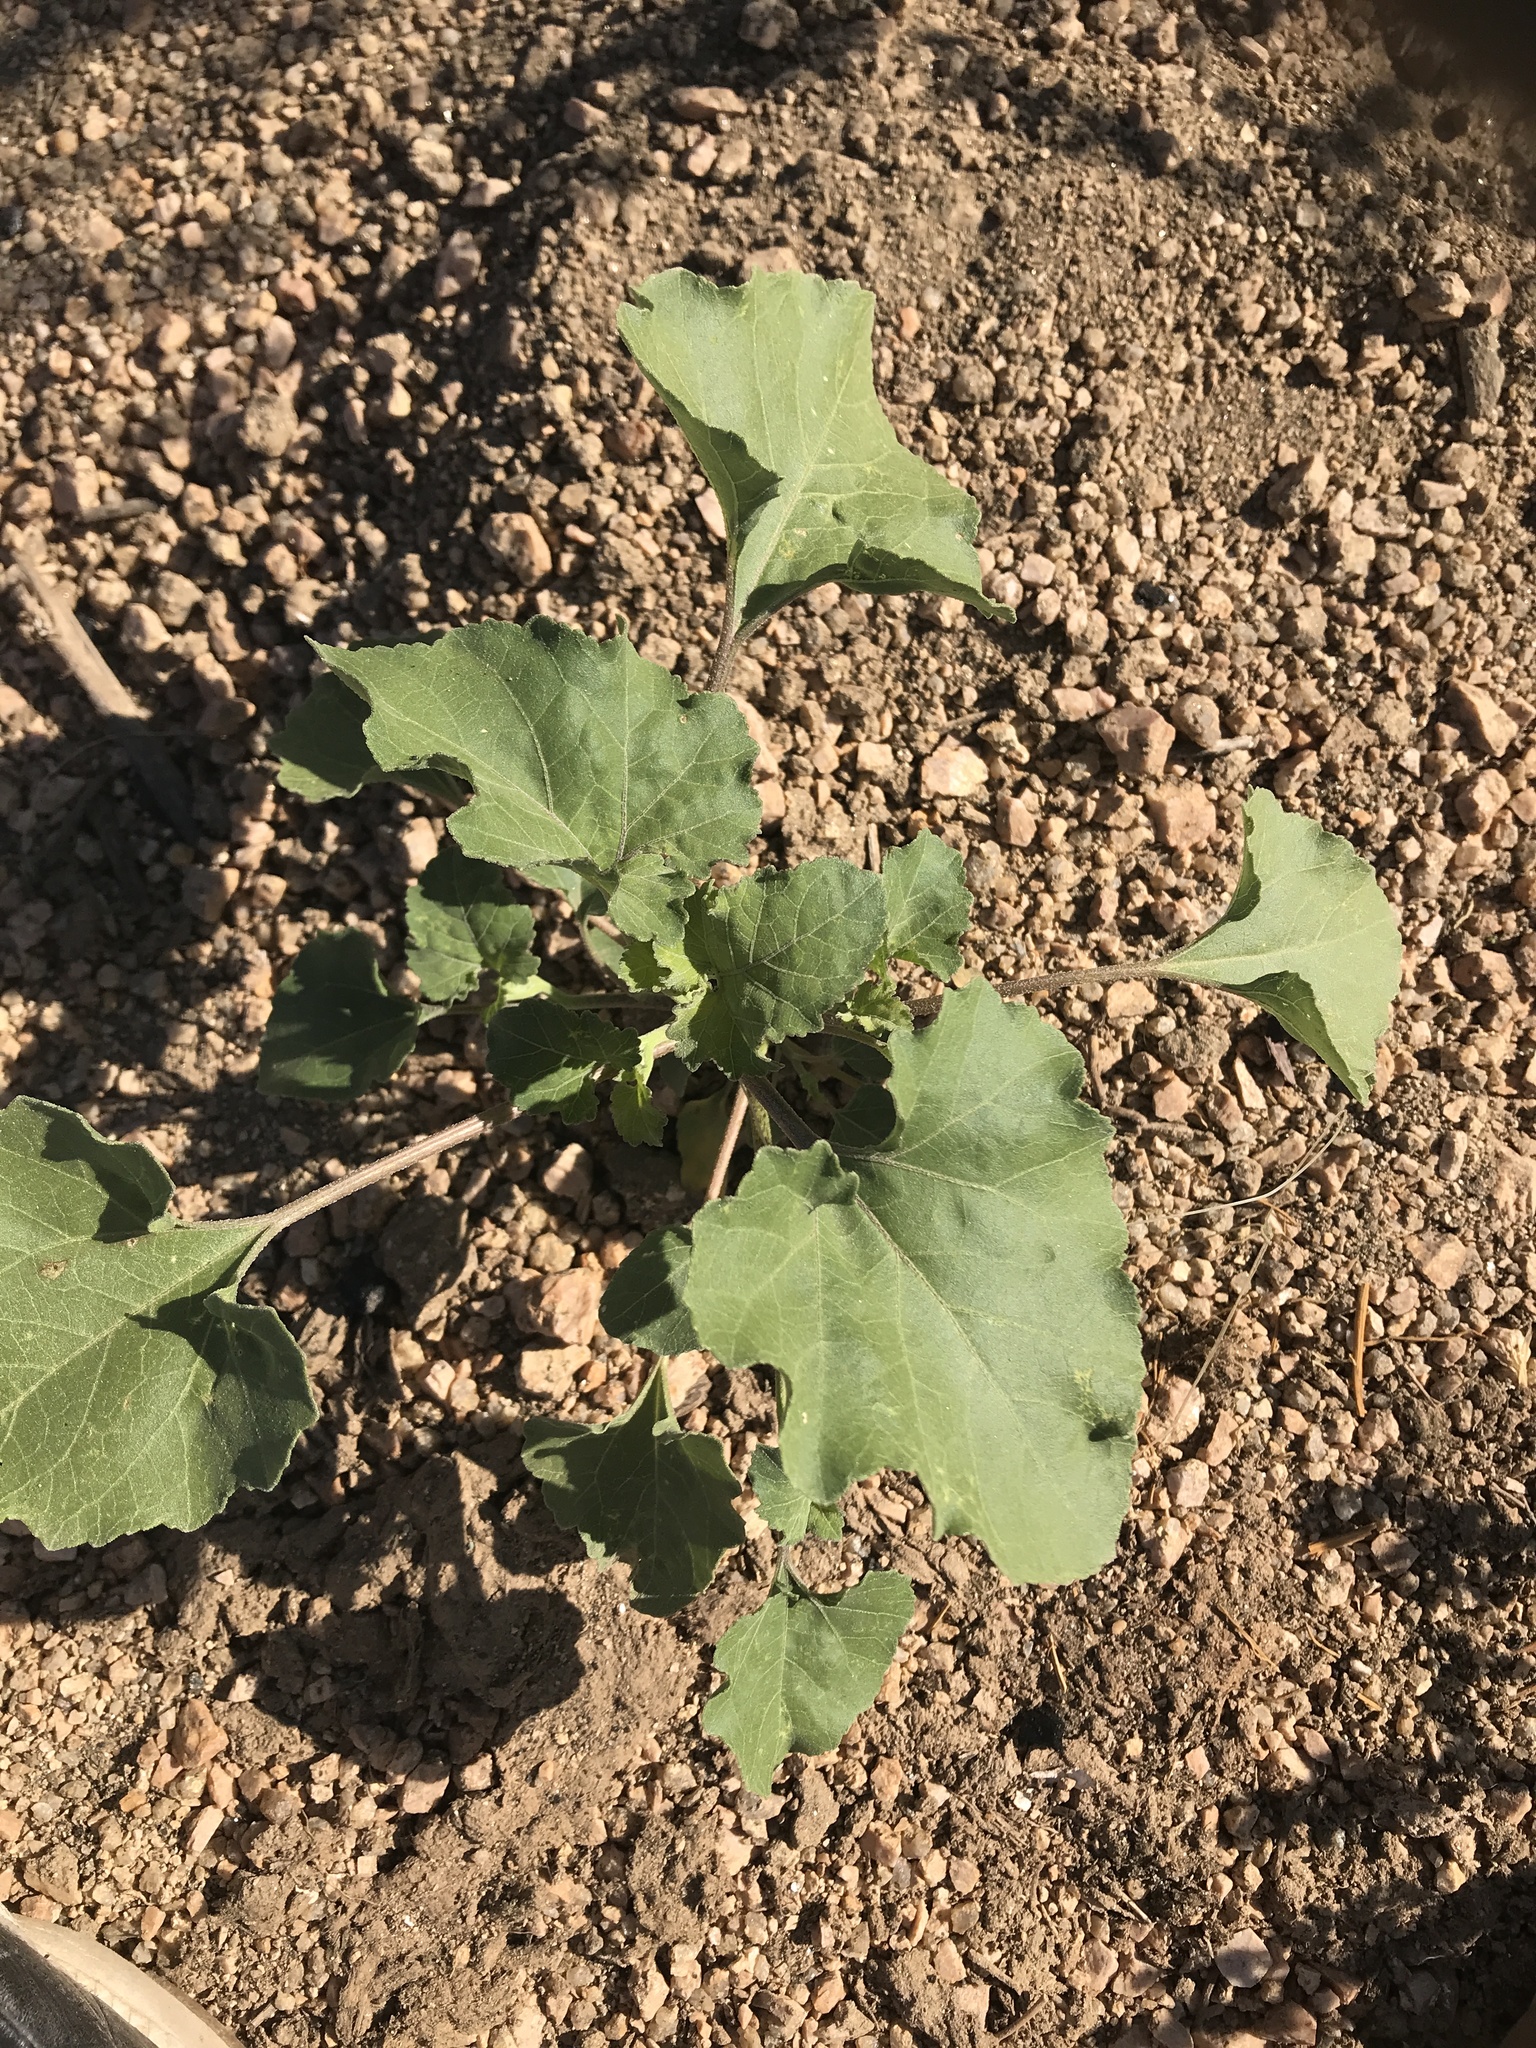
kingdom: Plantae
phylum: Tracheophyta
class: Magnoliopsida
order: Asterales
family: Asteraceae
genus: Xanthium
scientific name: Xanthium strumarium
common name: Rough cocklebur
